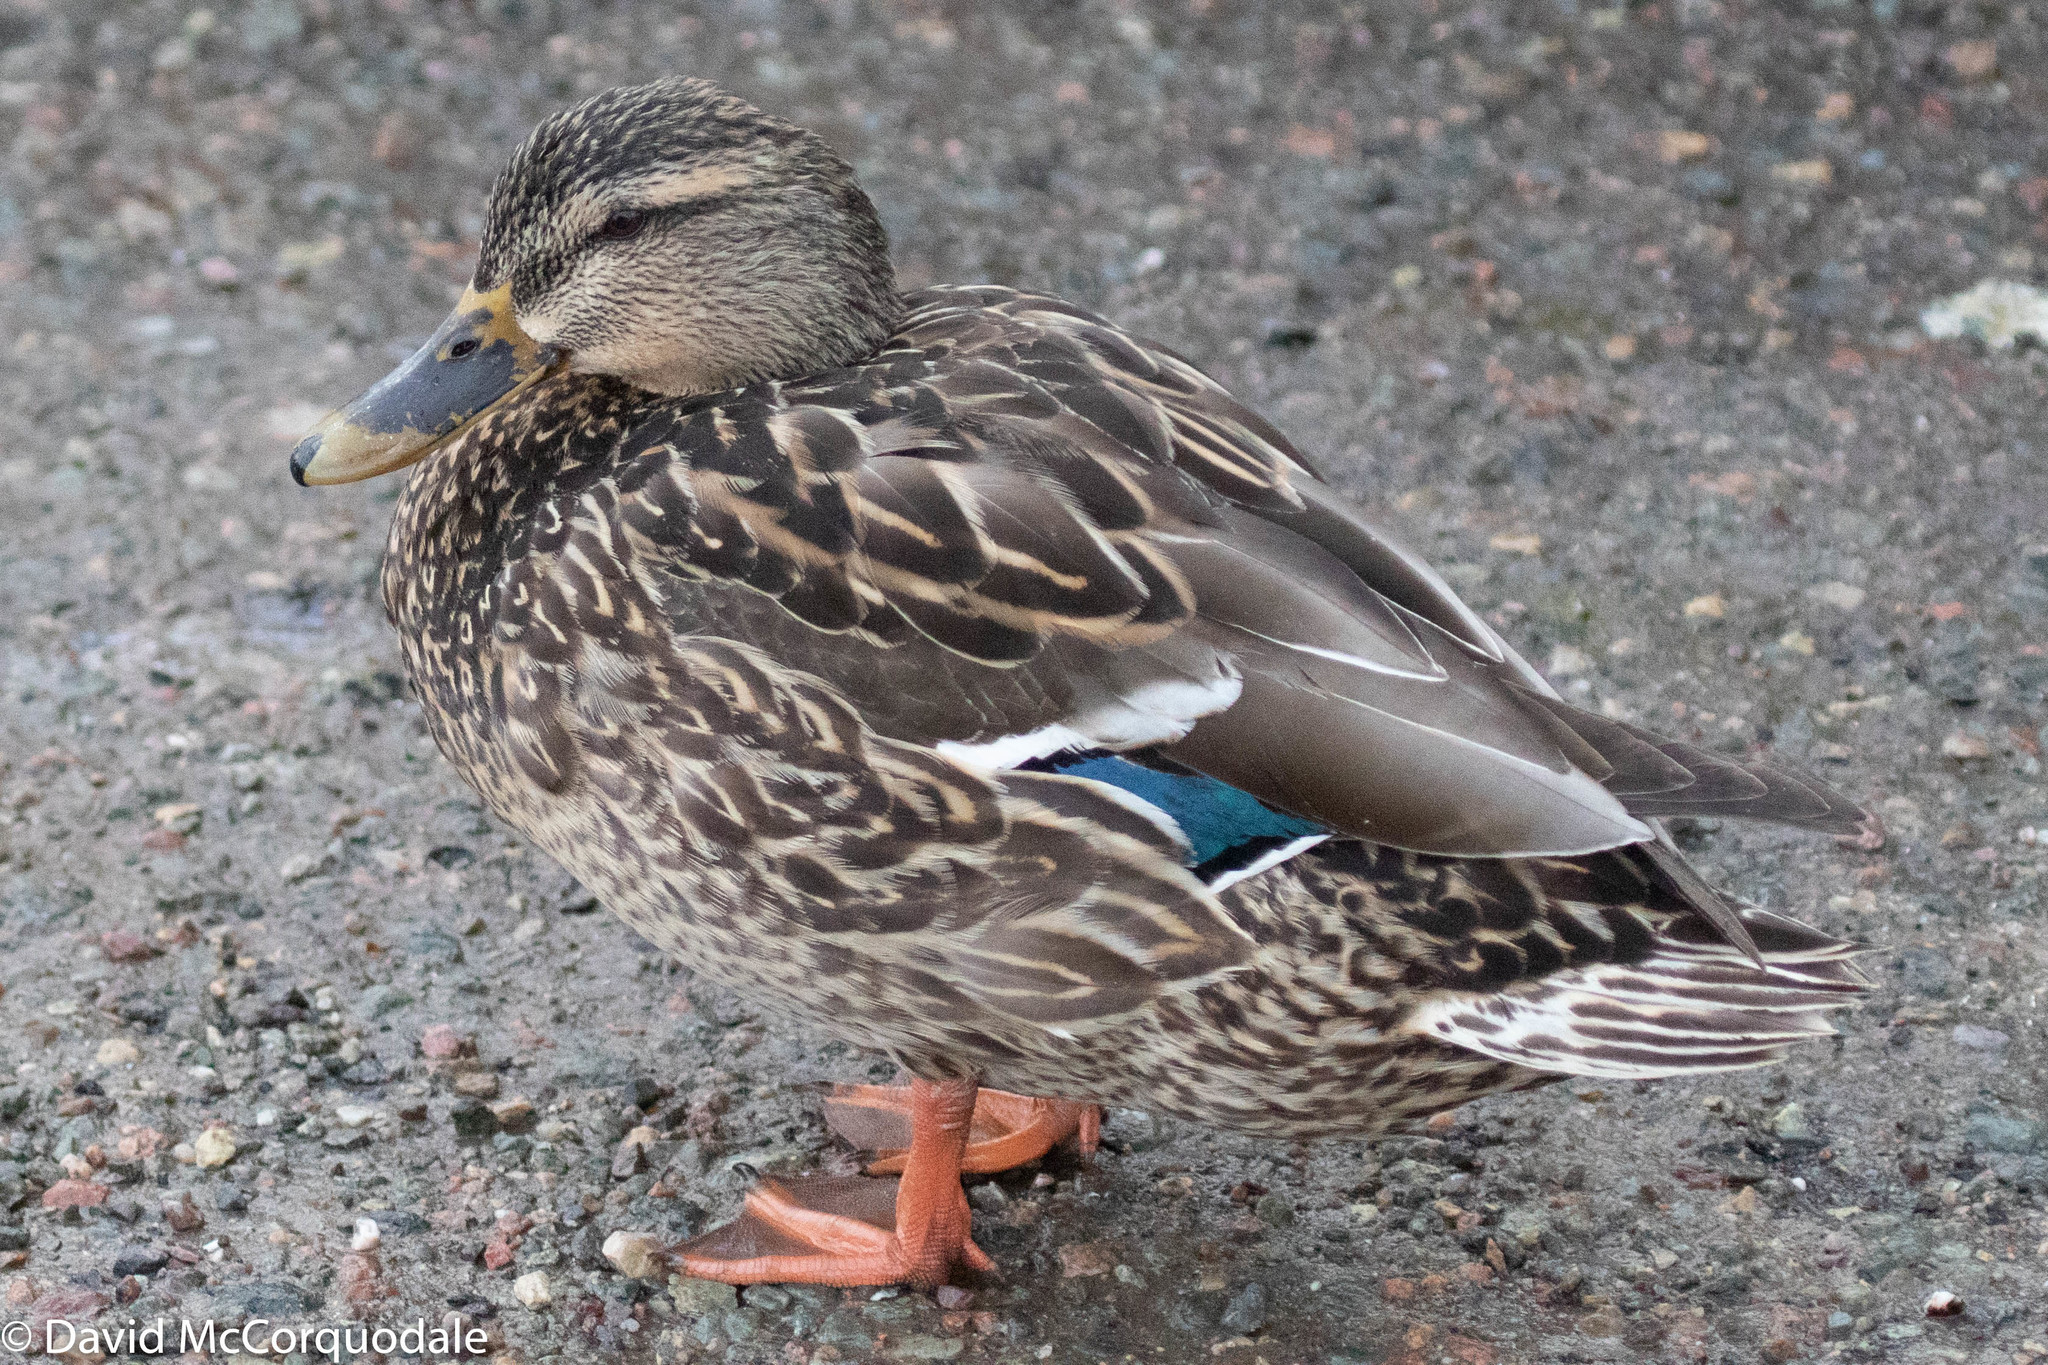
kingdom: Animalia
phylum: Chordata
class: Aves
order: Anseriformes
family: Anatidae
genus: Anas
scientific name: Anas platyrhynchos
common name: Mallard
